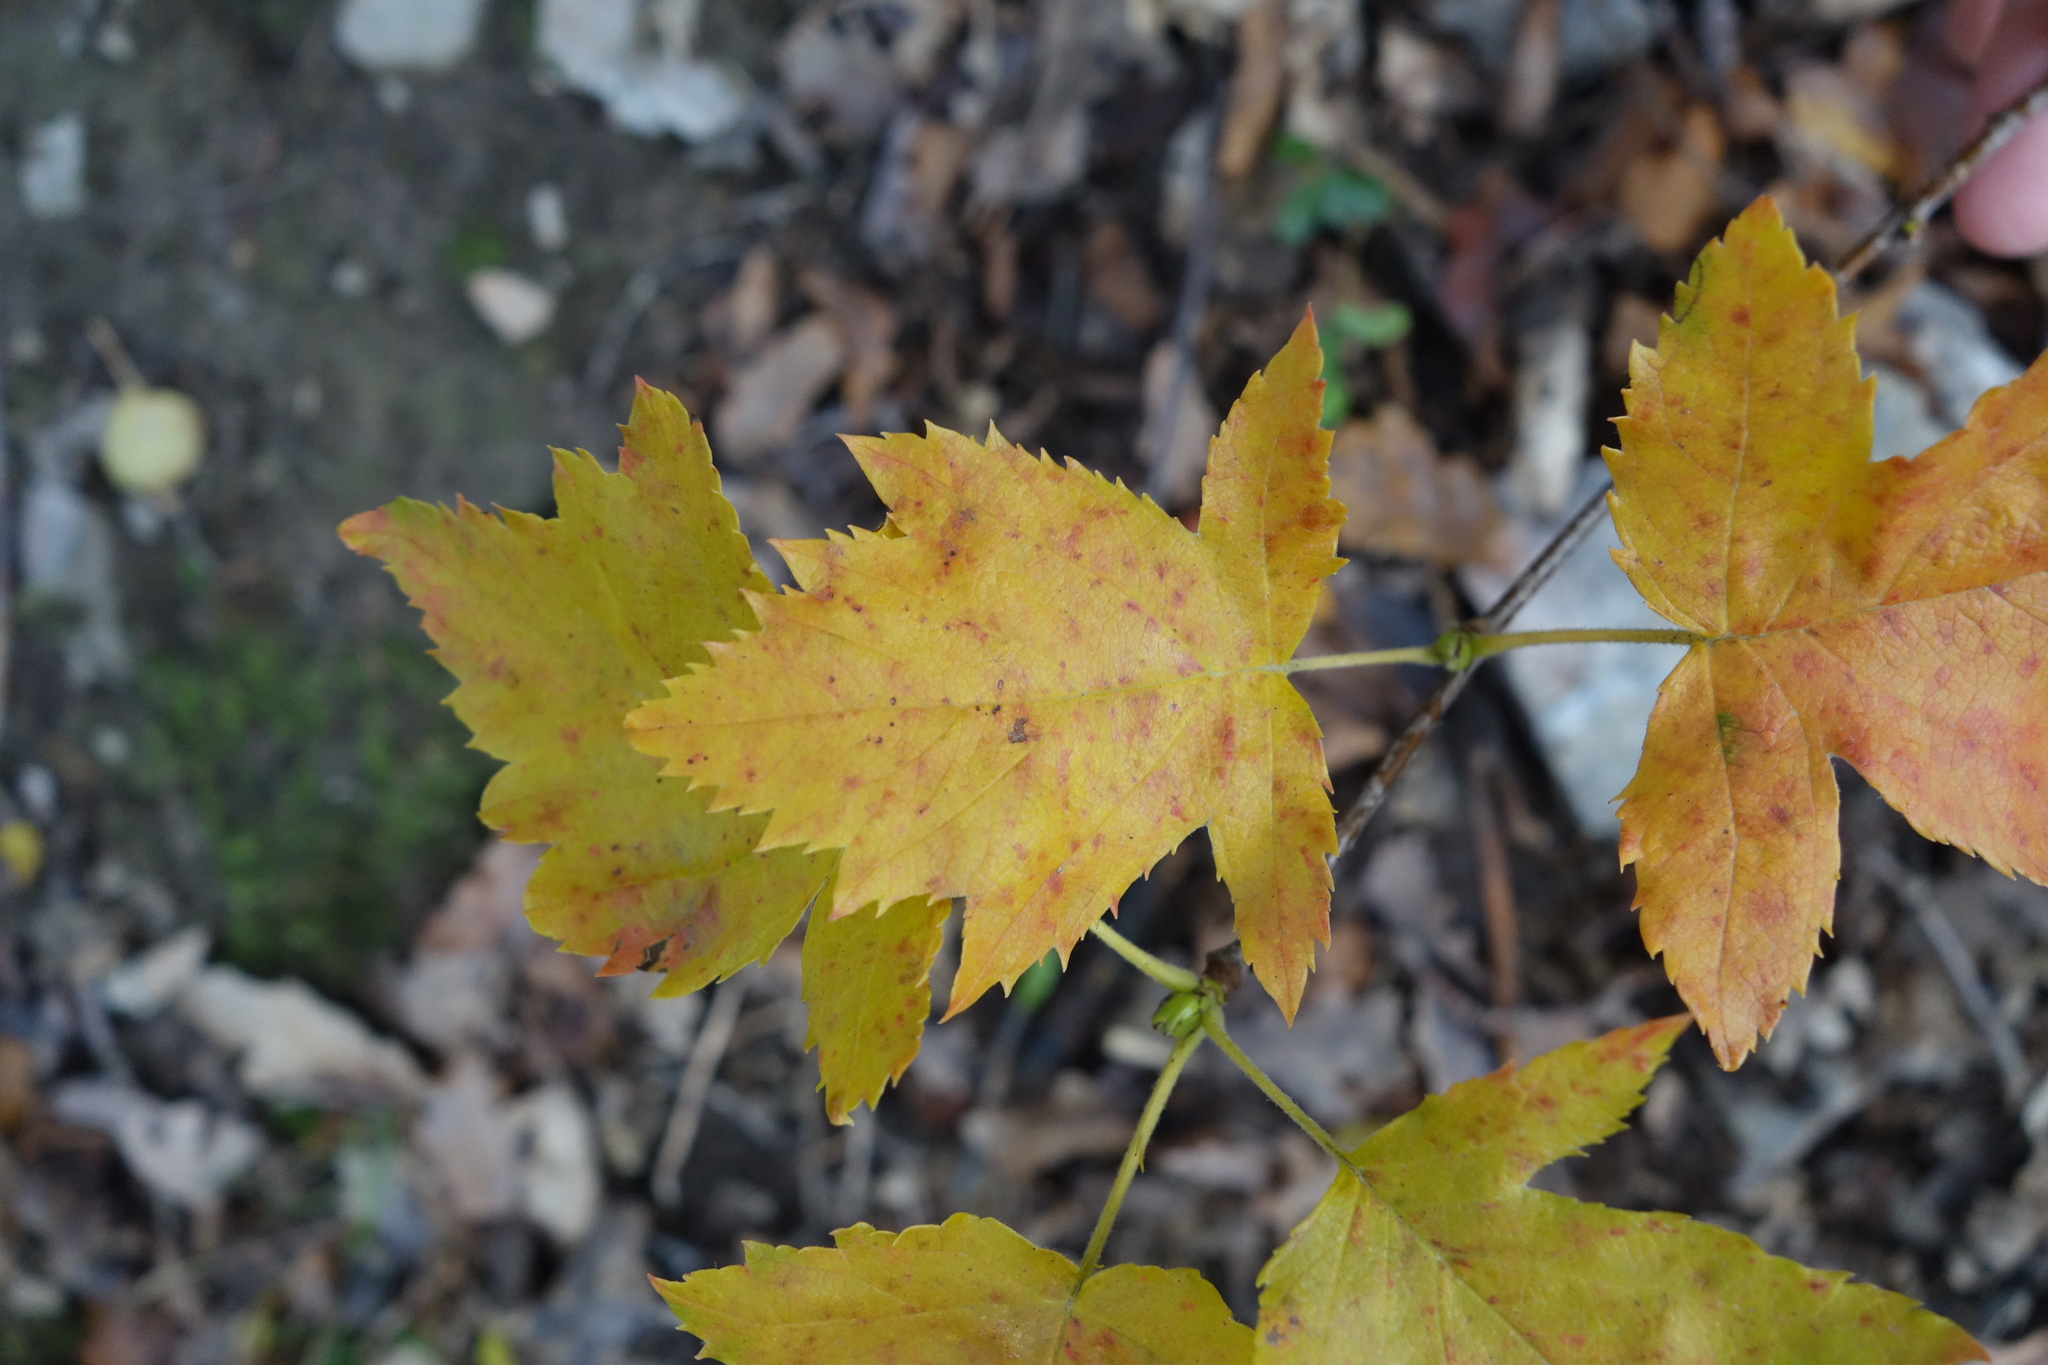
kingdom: Plantae
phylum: Tracheophyta
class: Magnoliopsida
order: Rosales
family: Rosaceae
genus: Torminalis
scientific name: Torminalis glaberrima
